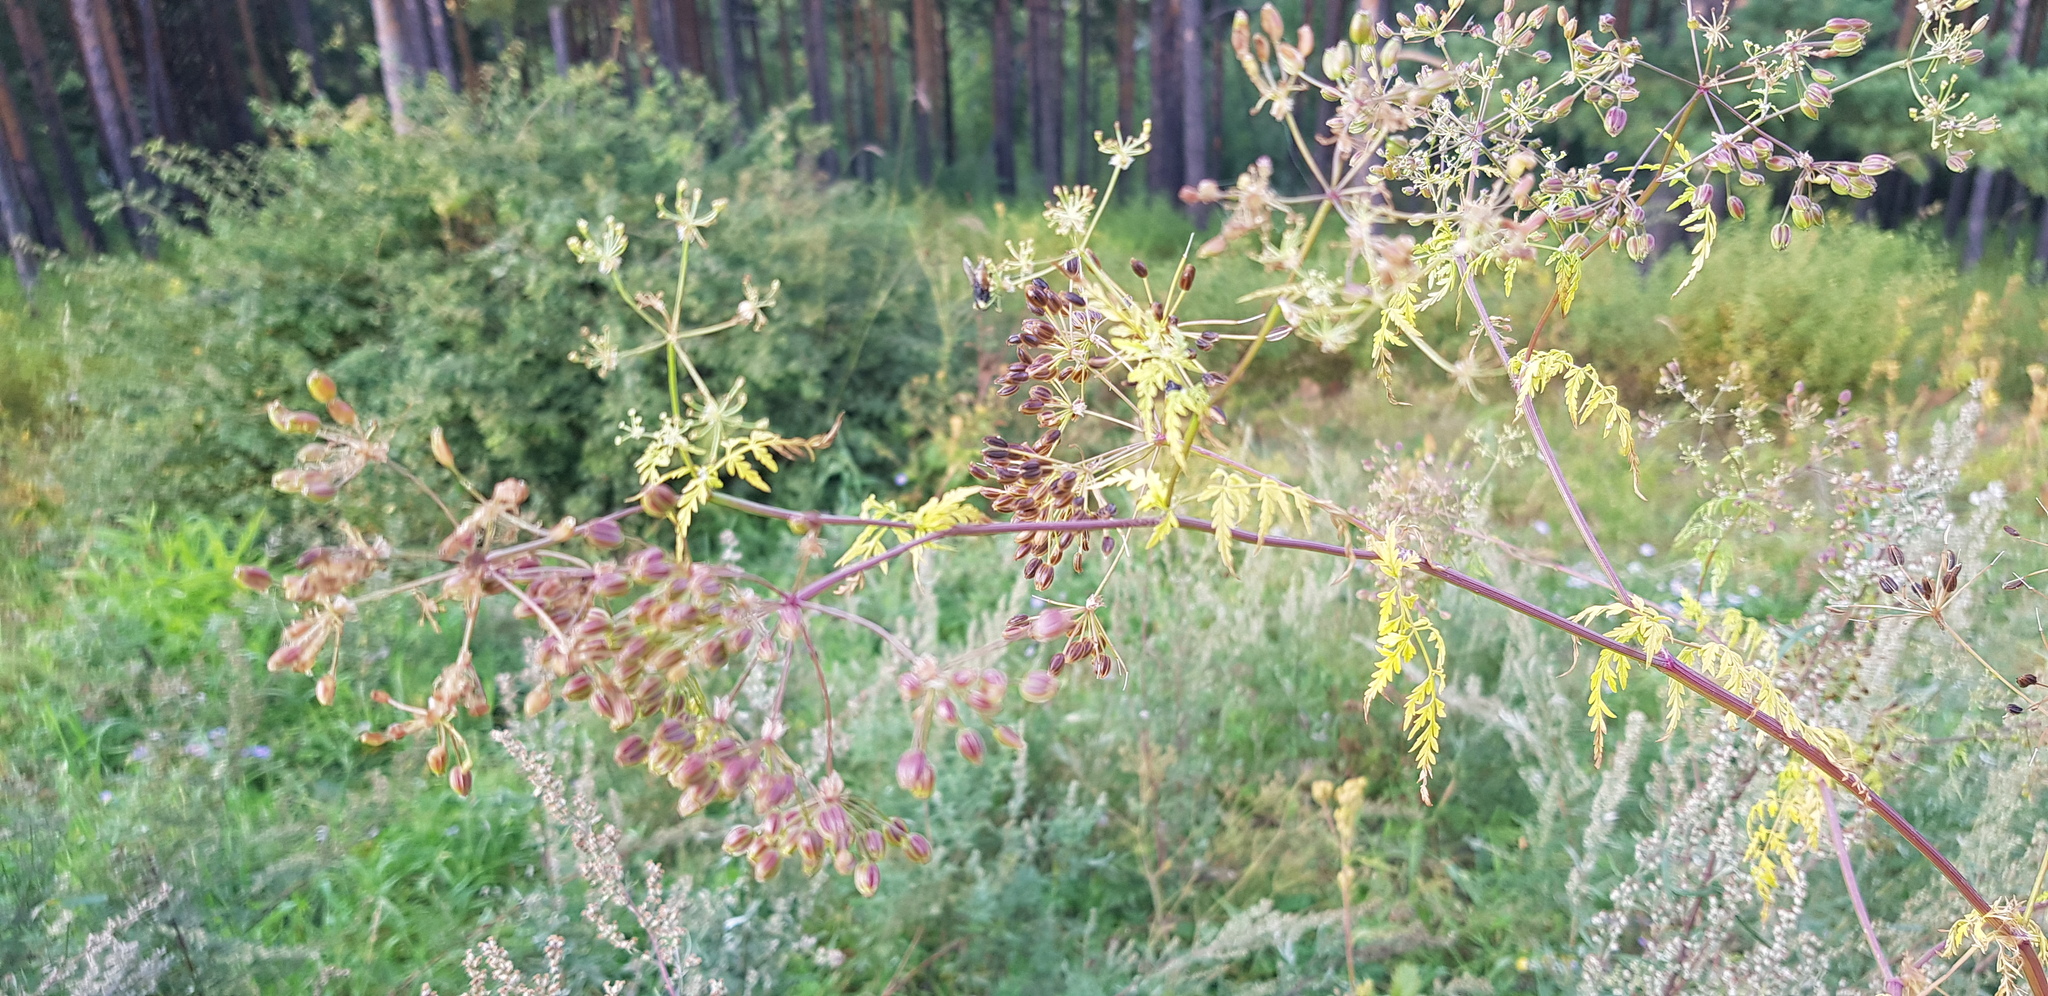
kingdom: Plantae
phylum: Tracheophyta
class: Magnoliopsida
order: Apiales
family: Apiaceae
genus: Sphallerocarpus
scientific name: Sphallerocarpus gracilis
